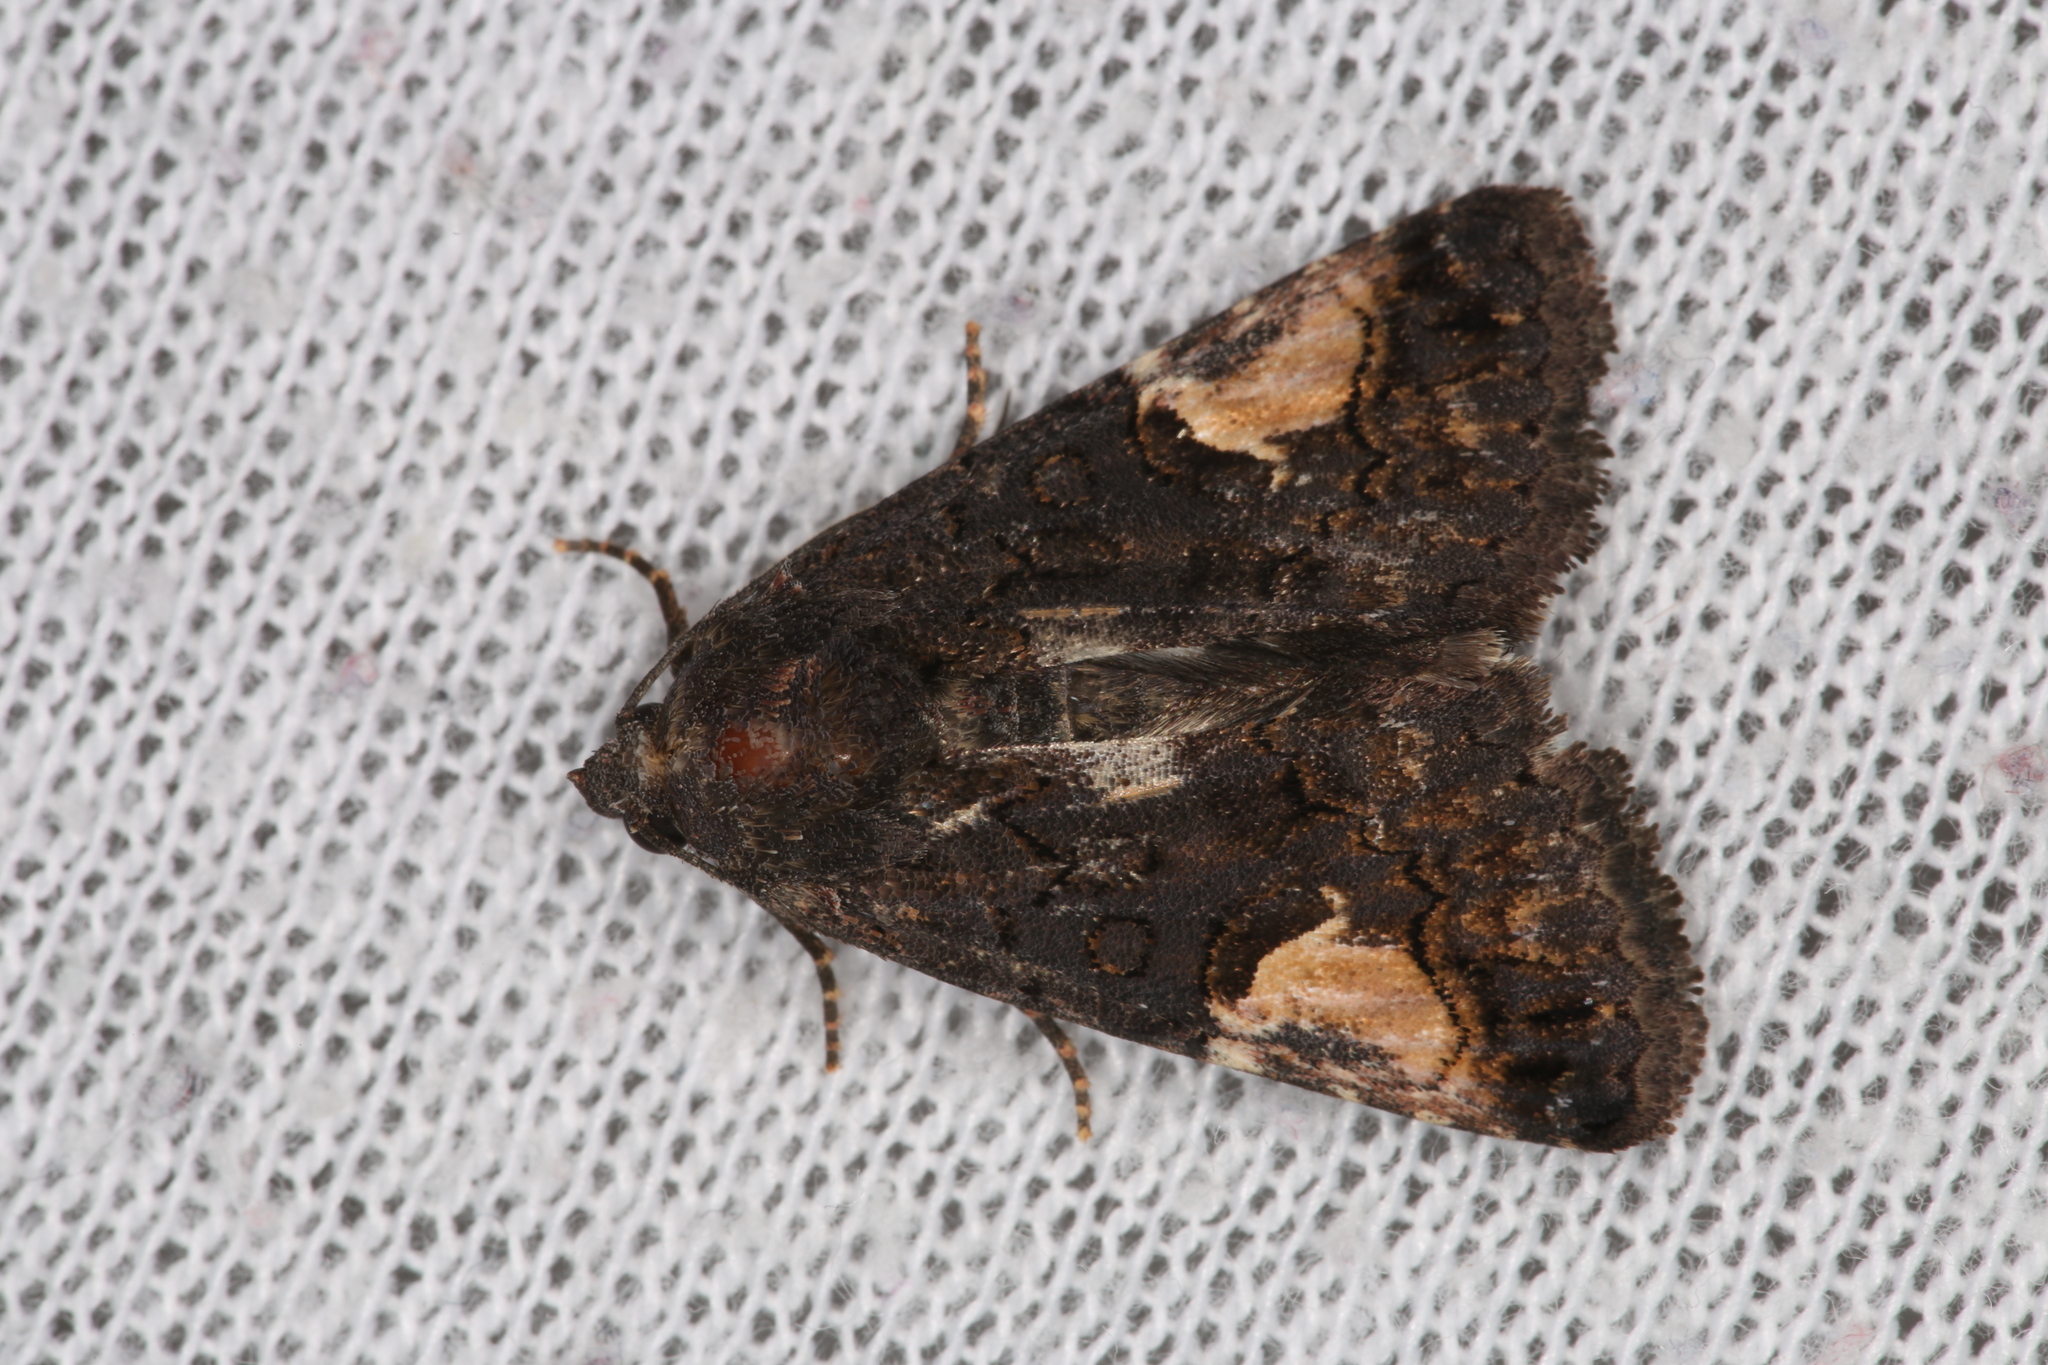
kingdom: Animalia
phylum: Arthropoda
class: Insecta
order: Lepidoptera
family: Noctuidae
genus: Aedia
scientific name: Aedia funesta
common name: The druid
